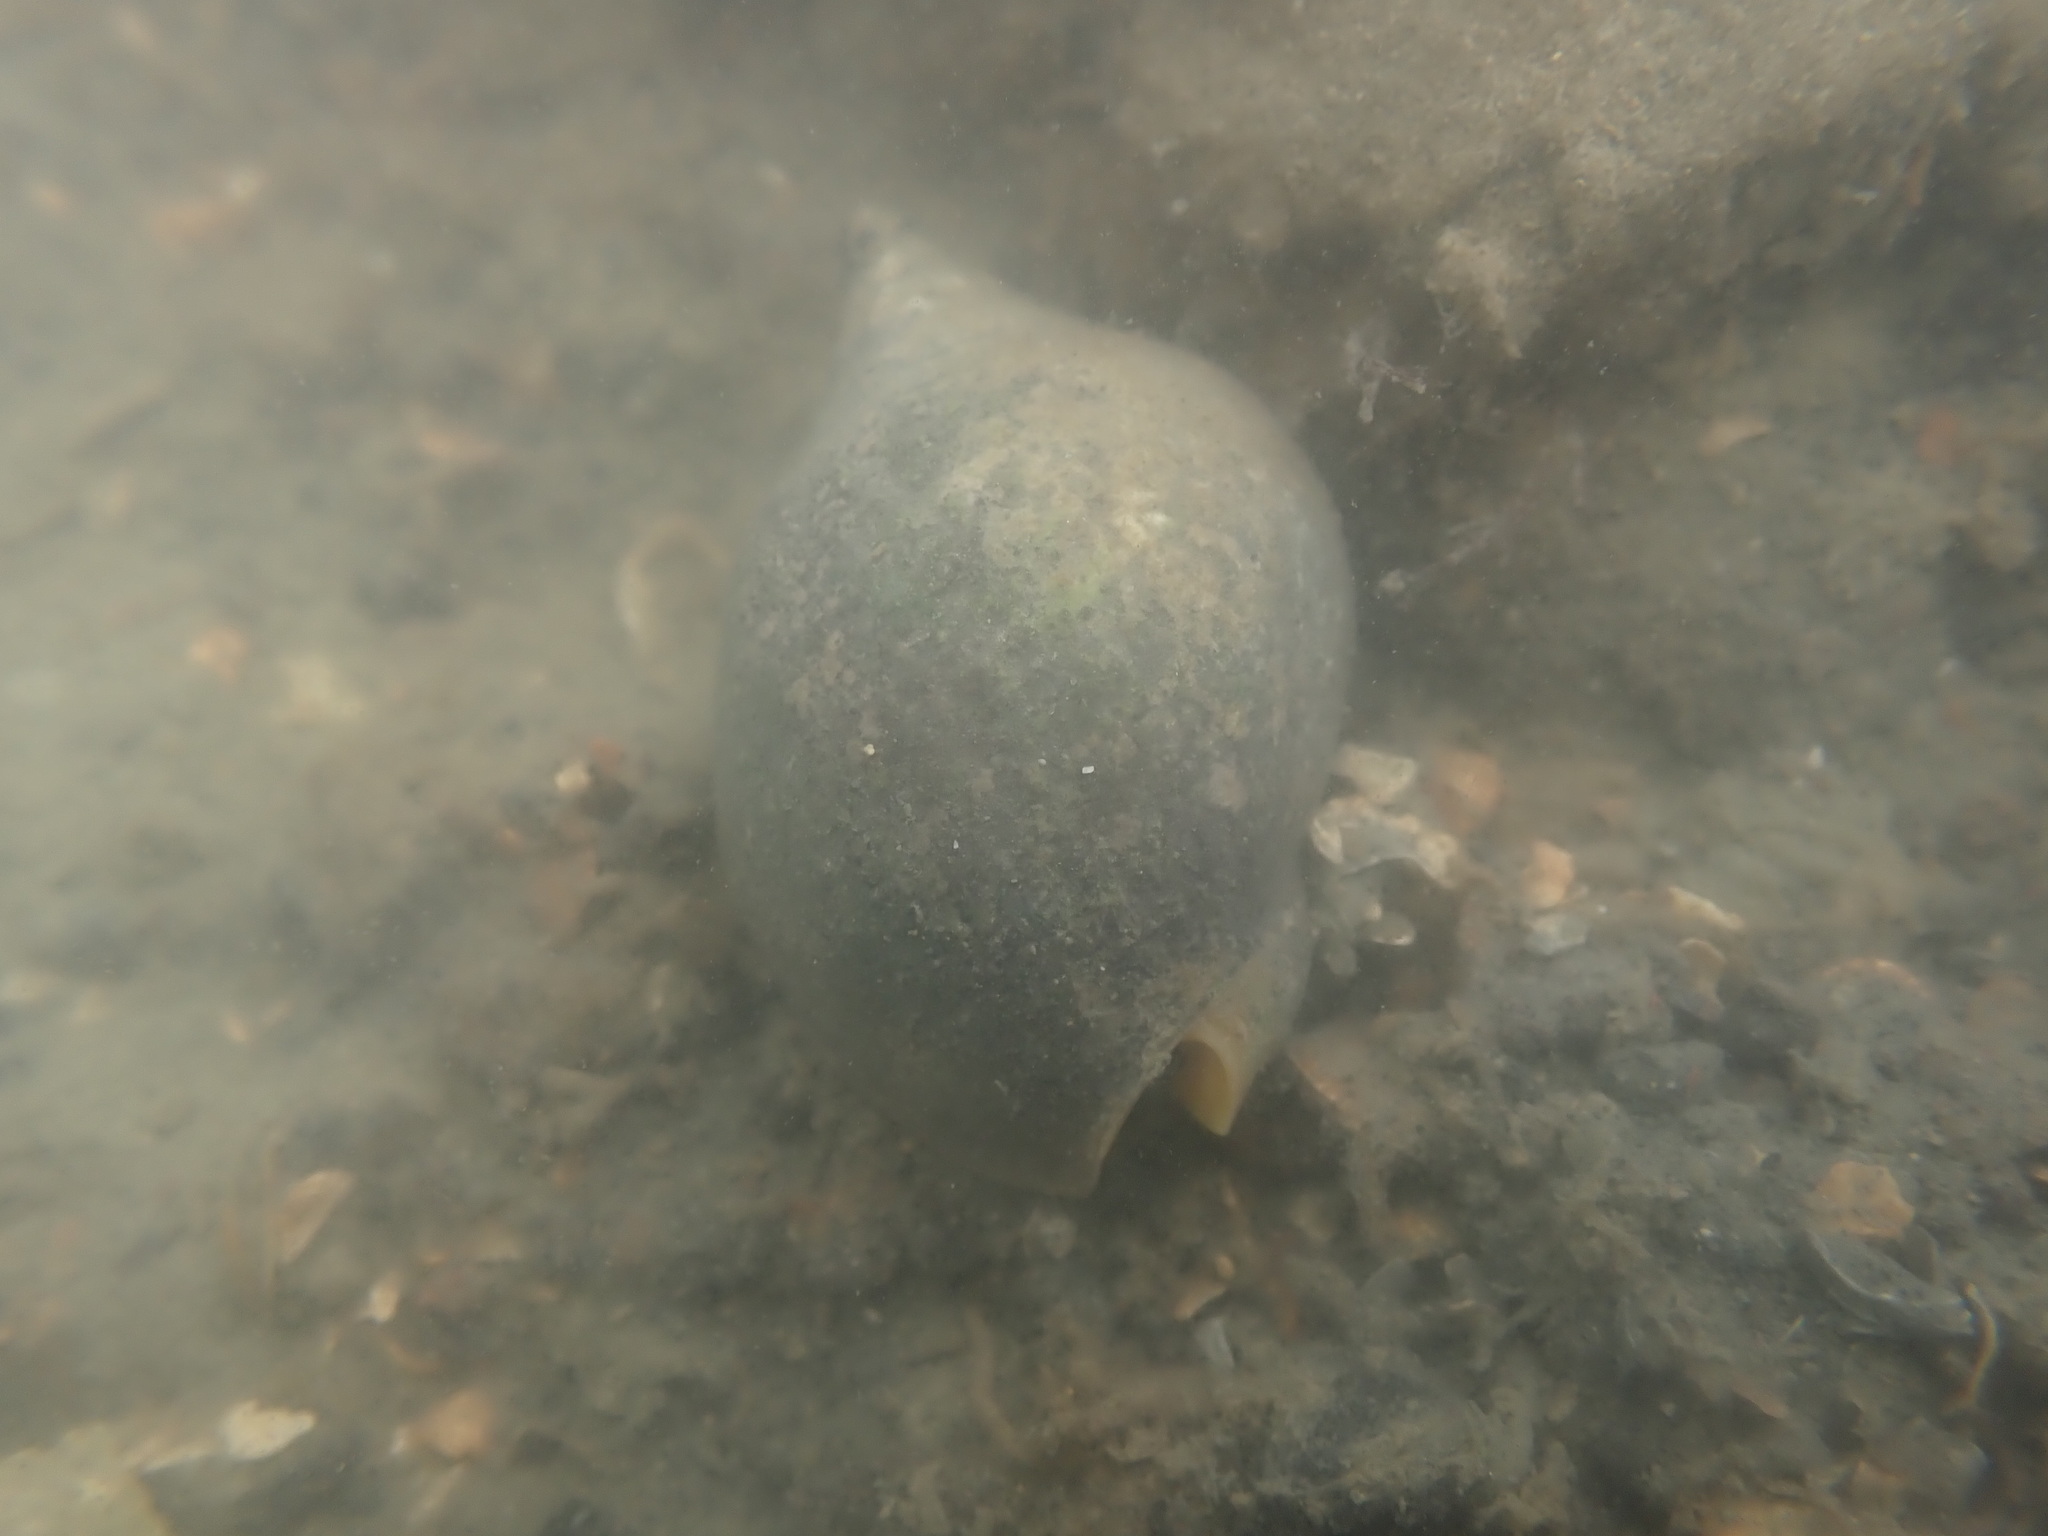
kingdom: Animalia
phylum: Mollusca
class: Gastropoda
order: Neogastropoda
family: Cominellidae
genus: Cominella
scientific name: Cominella adspersa
